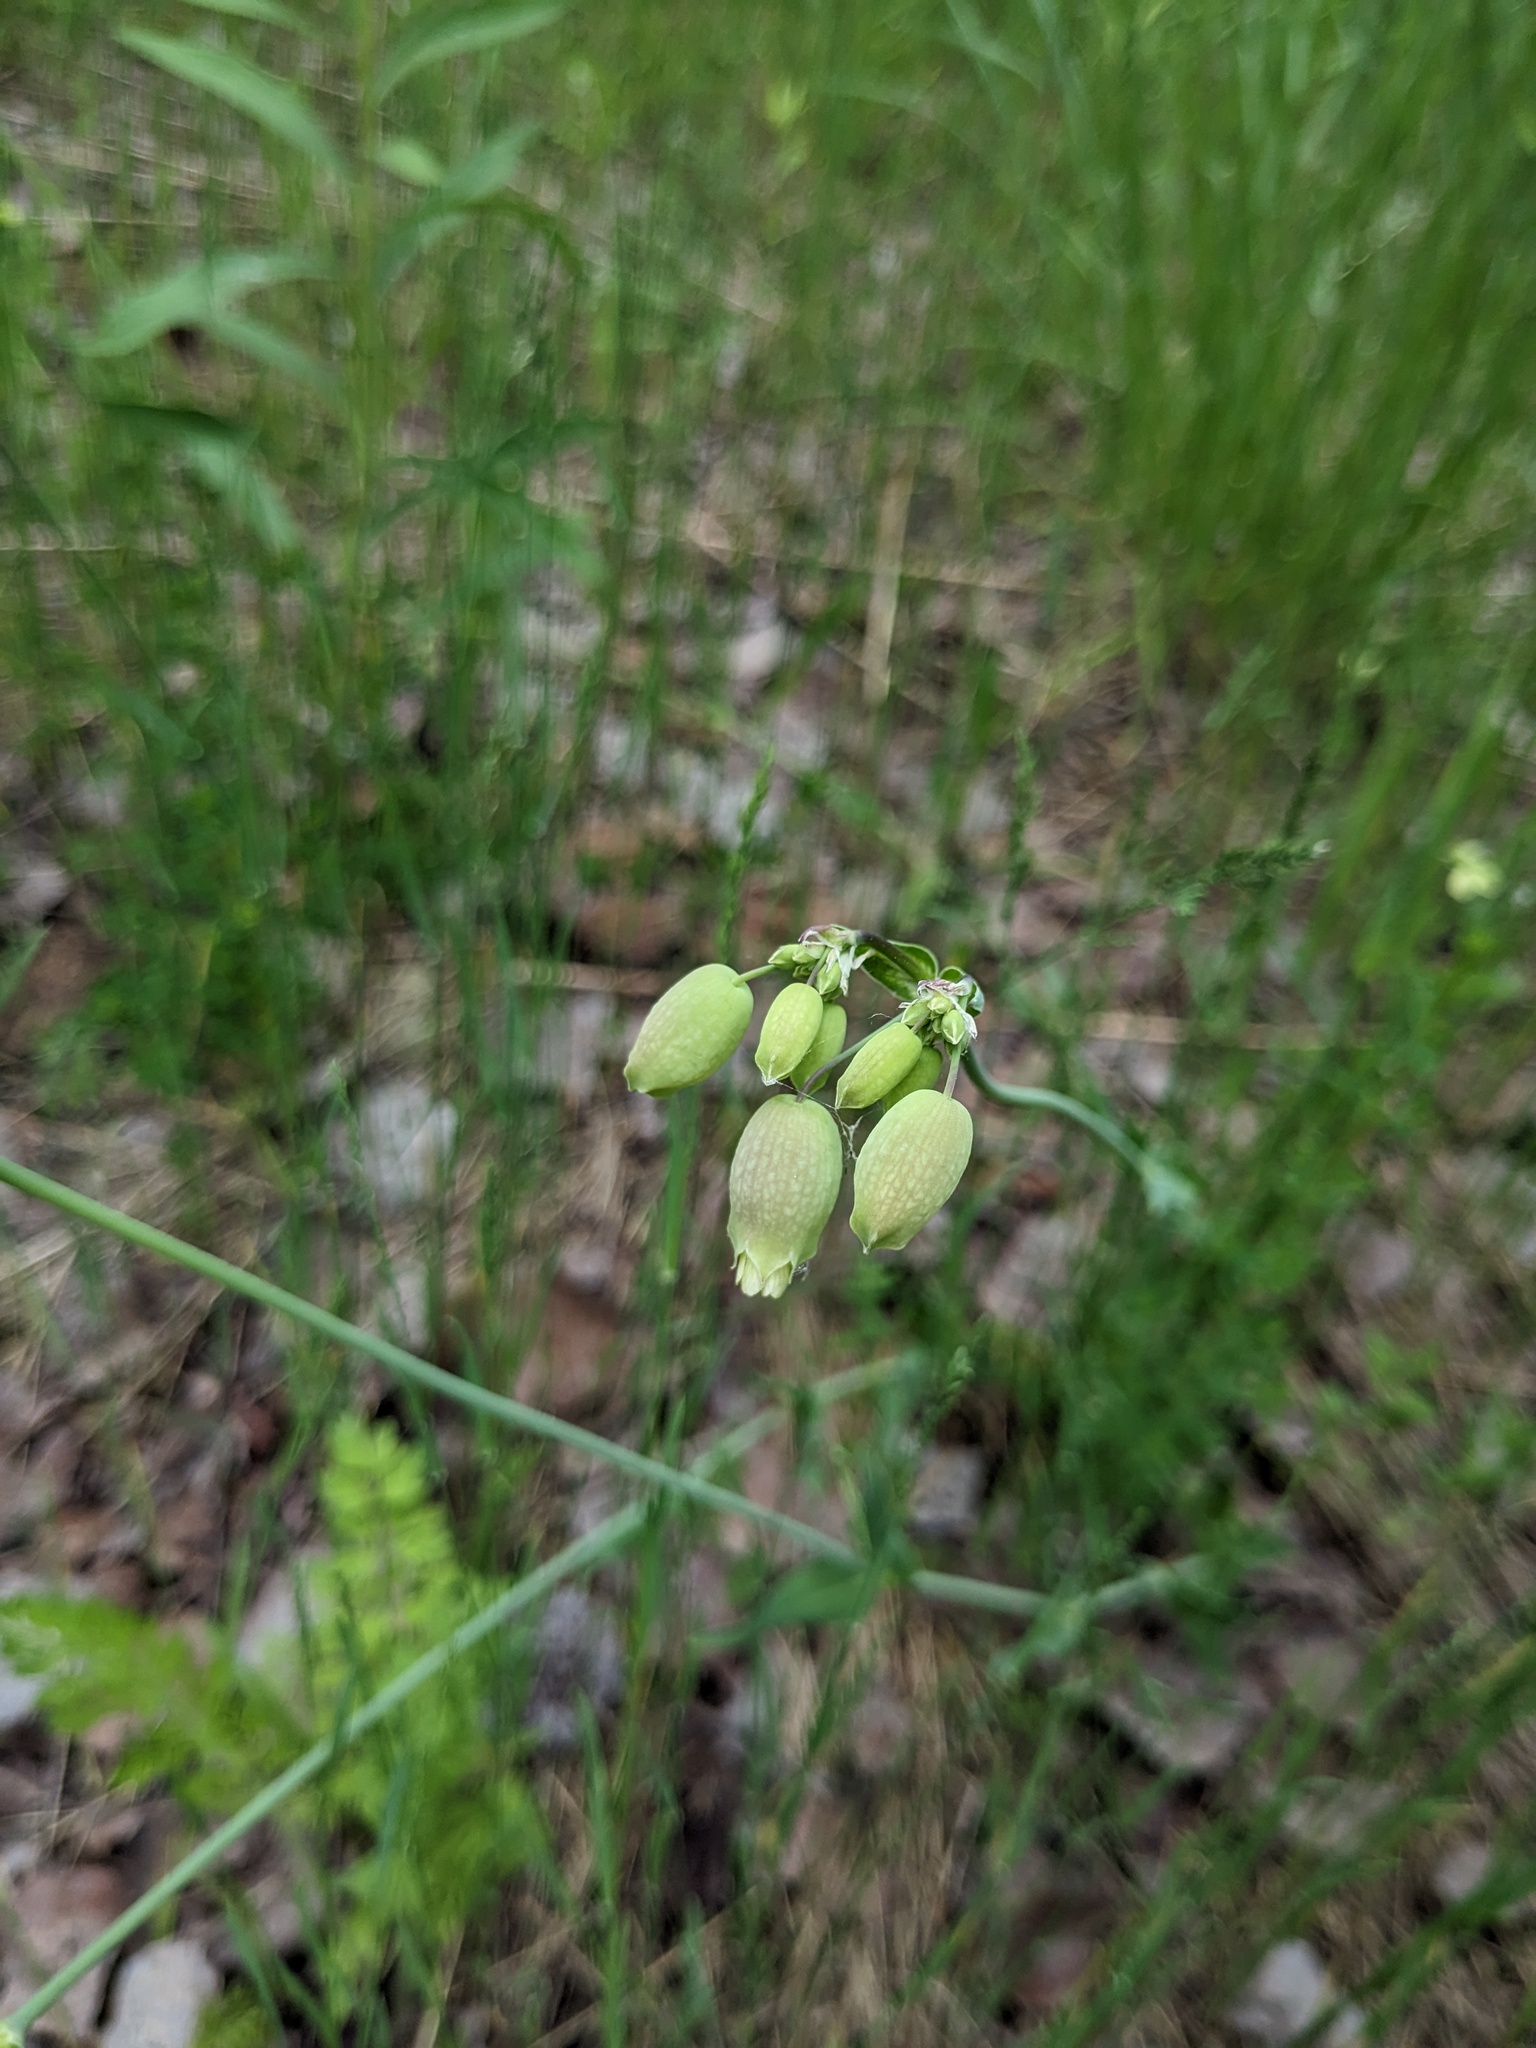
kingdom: Plantae
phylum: Tracheophyta
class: Magnoliopsida
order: Caryophyllales
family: Caryophyllaceae
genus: Silene
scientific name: Silene vulgaris
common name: Bladder campion
